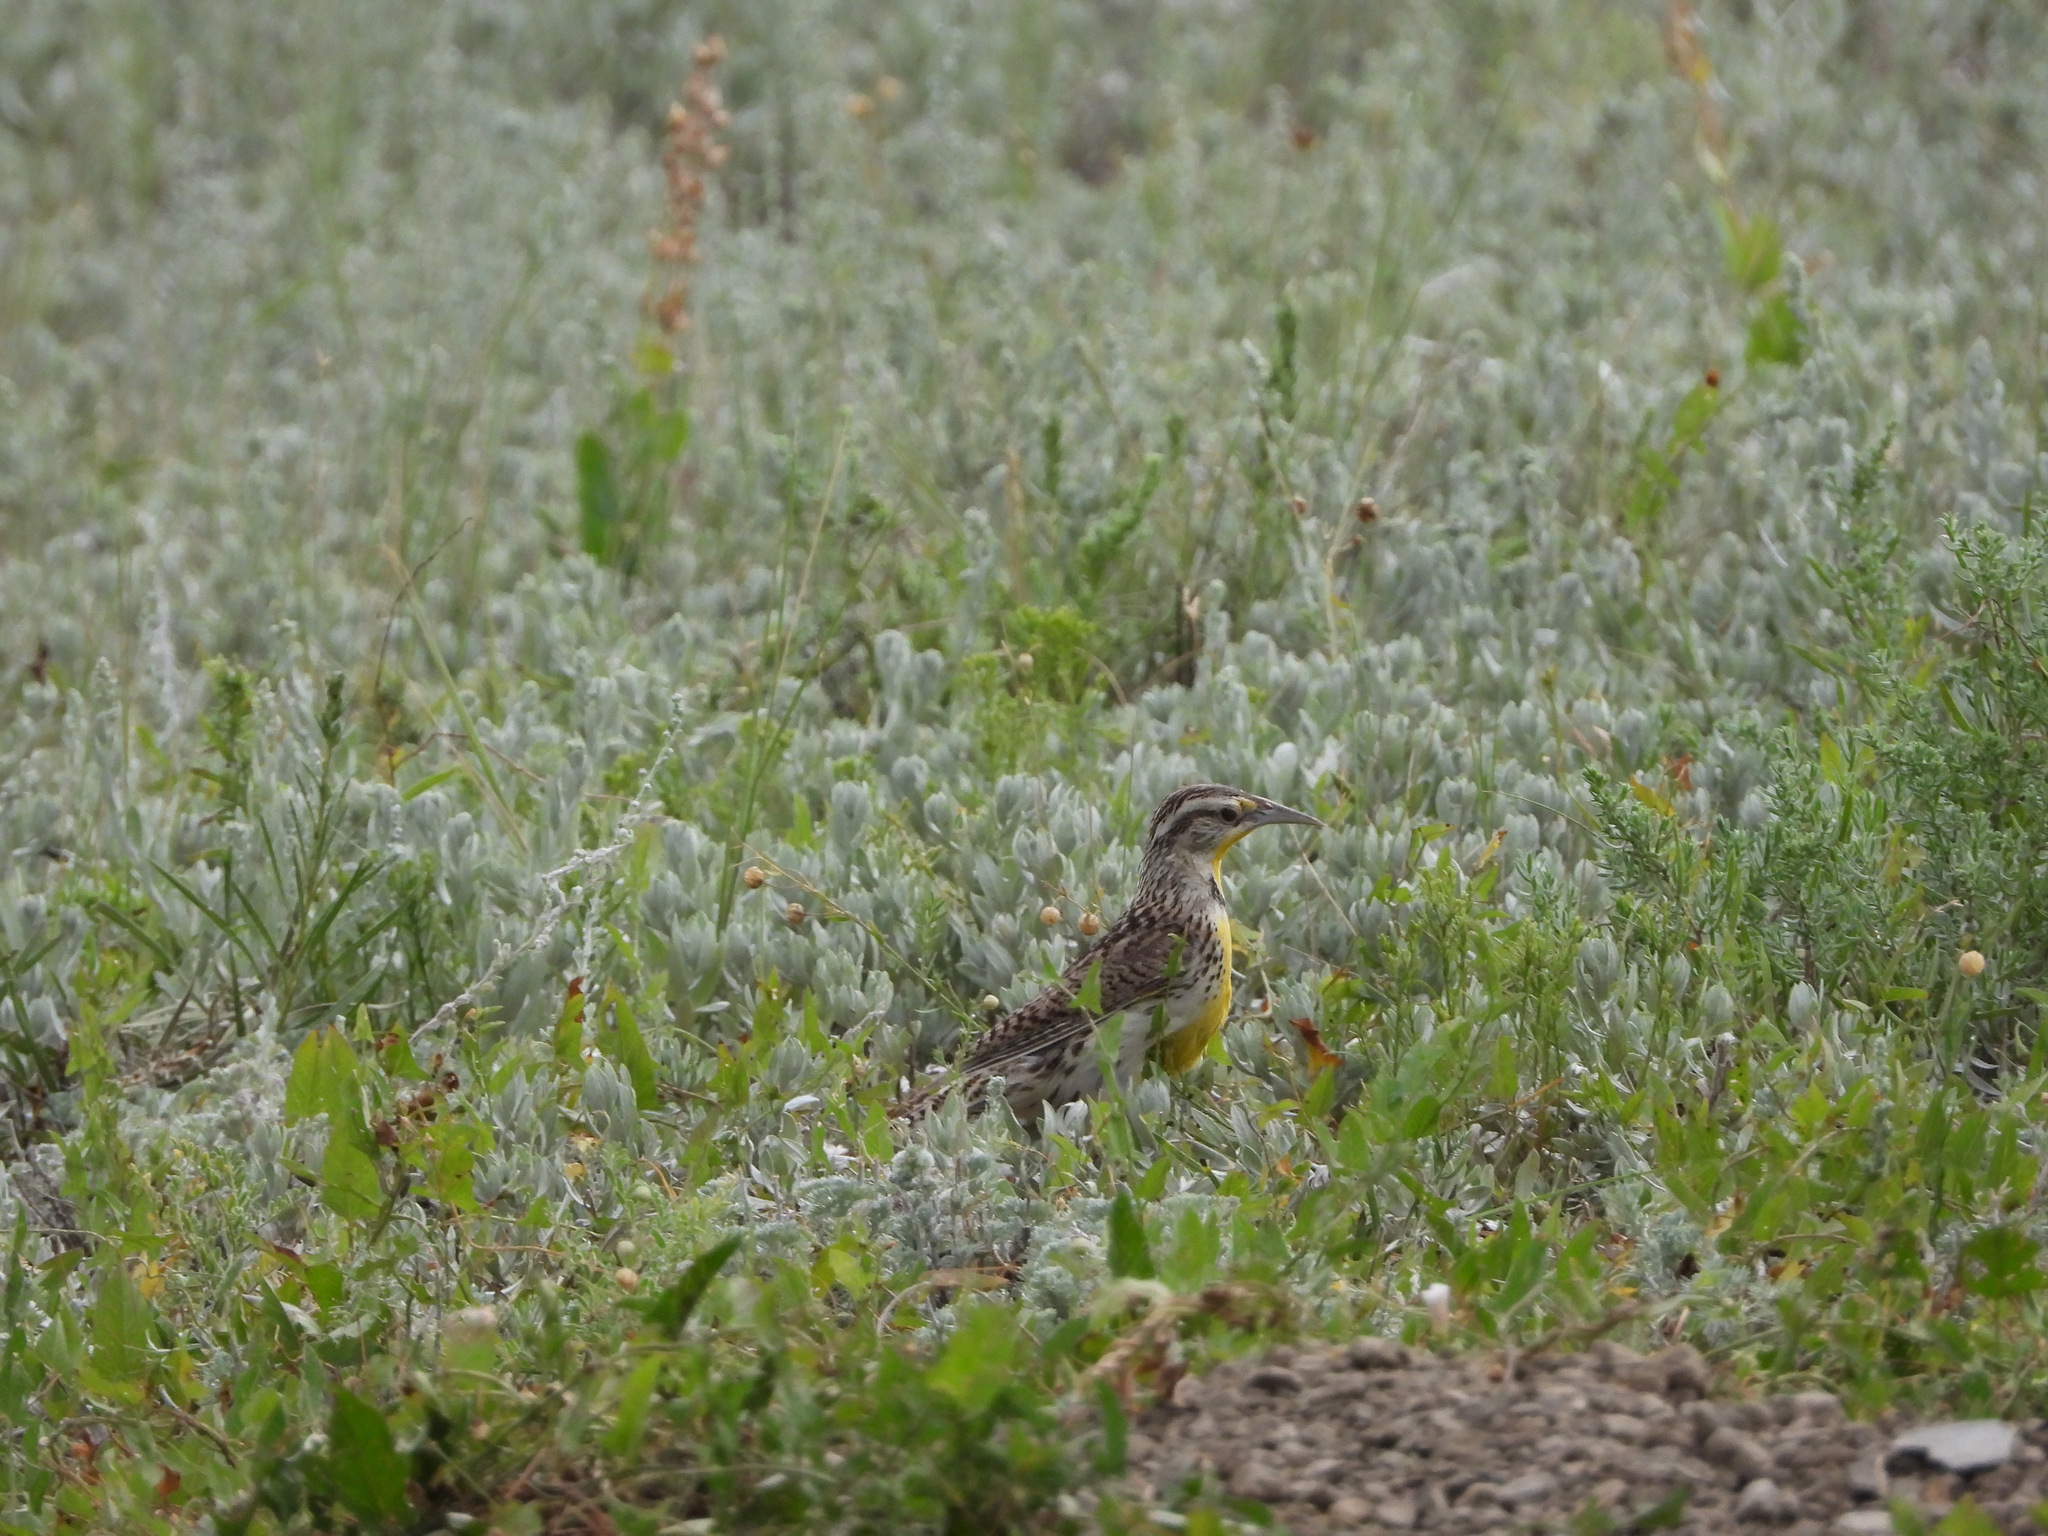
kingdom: Animalia
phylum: Chordata
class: Aves
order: Passeriformes
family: Icteridae
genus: Sturnella
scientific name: Sturnella neglecta
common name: Western meadowlark
